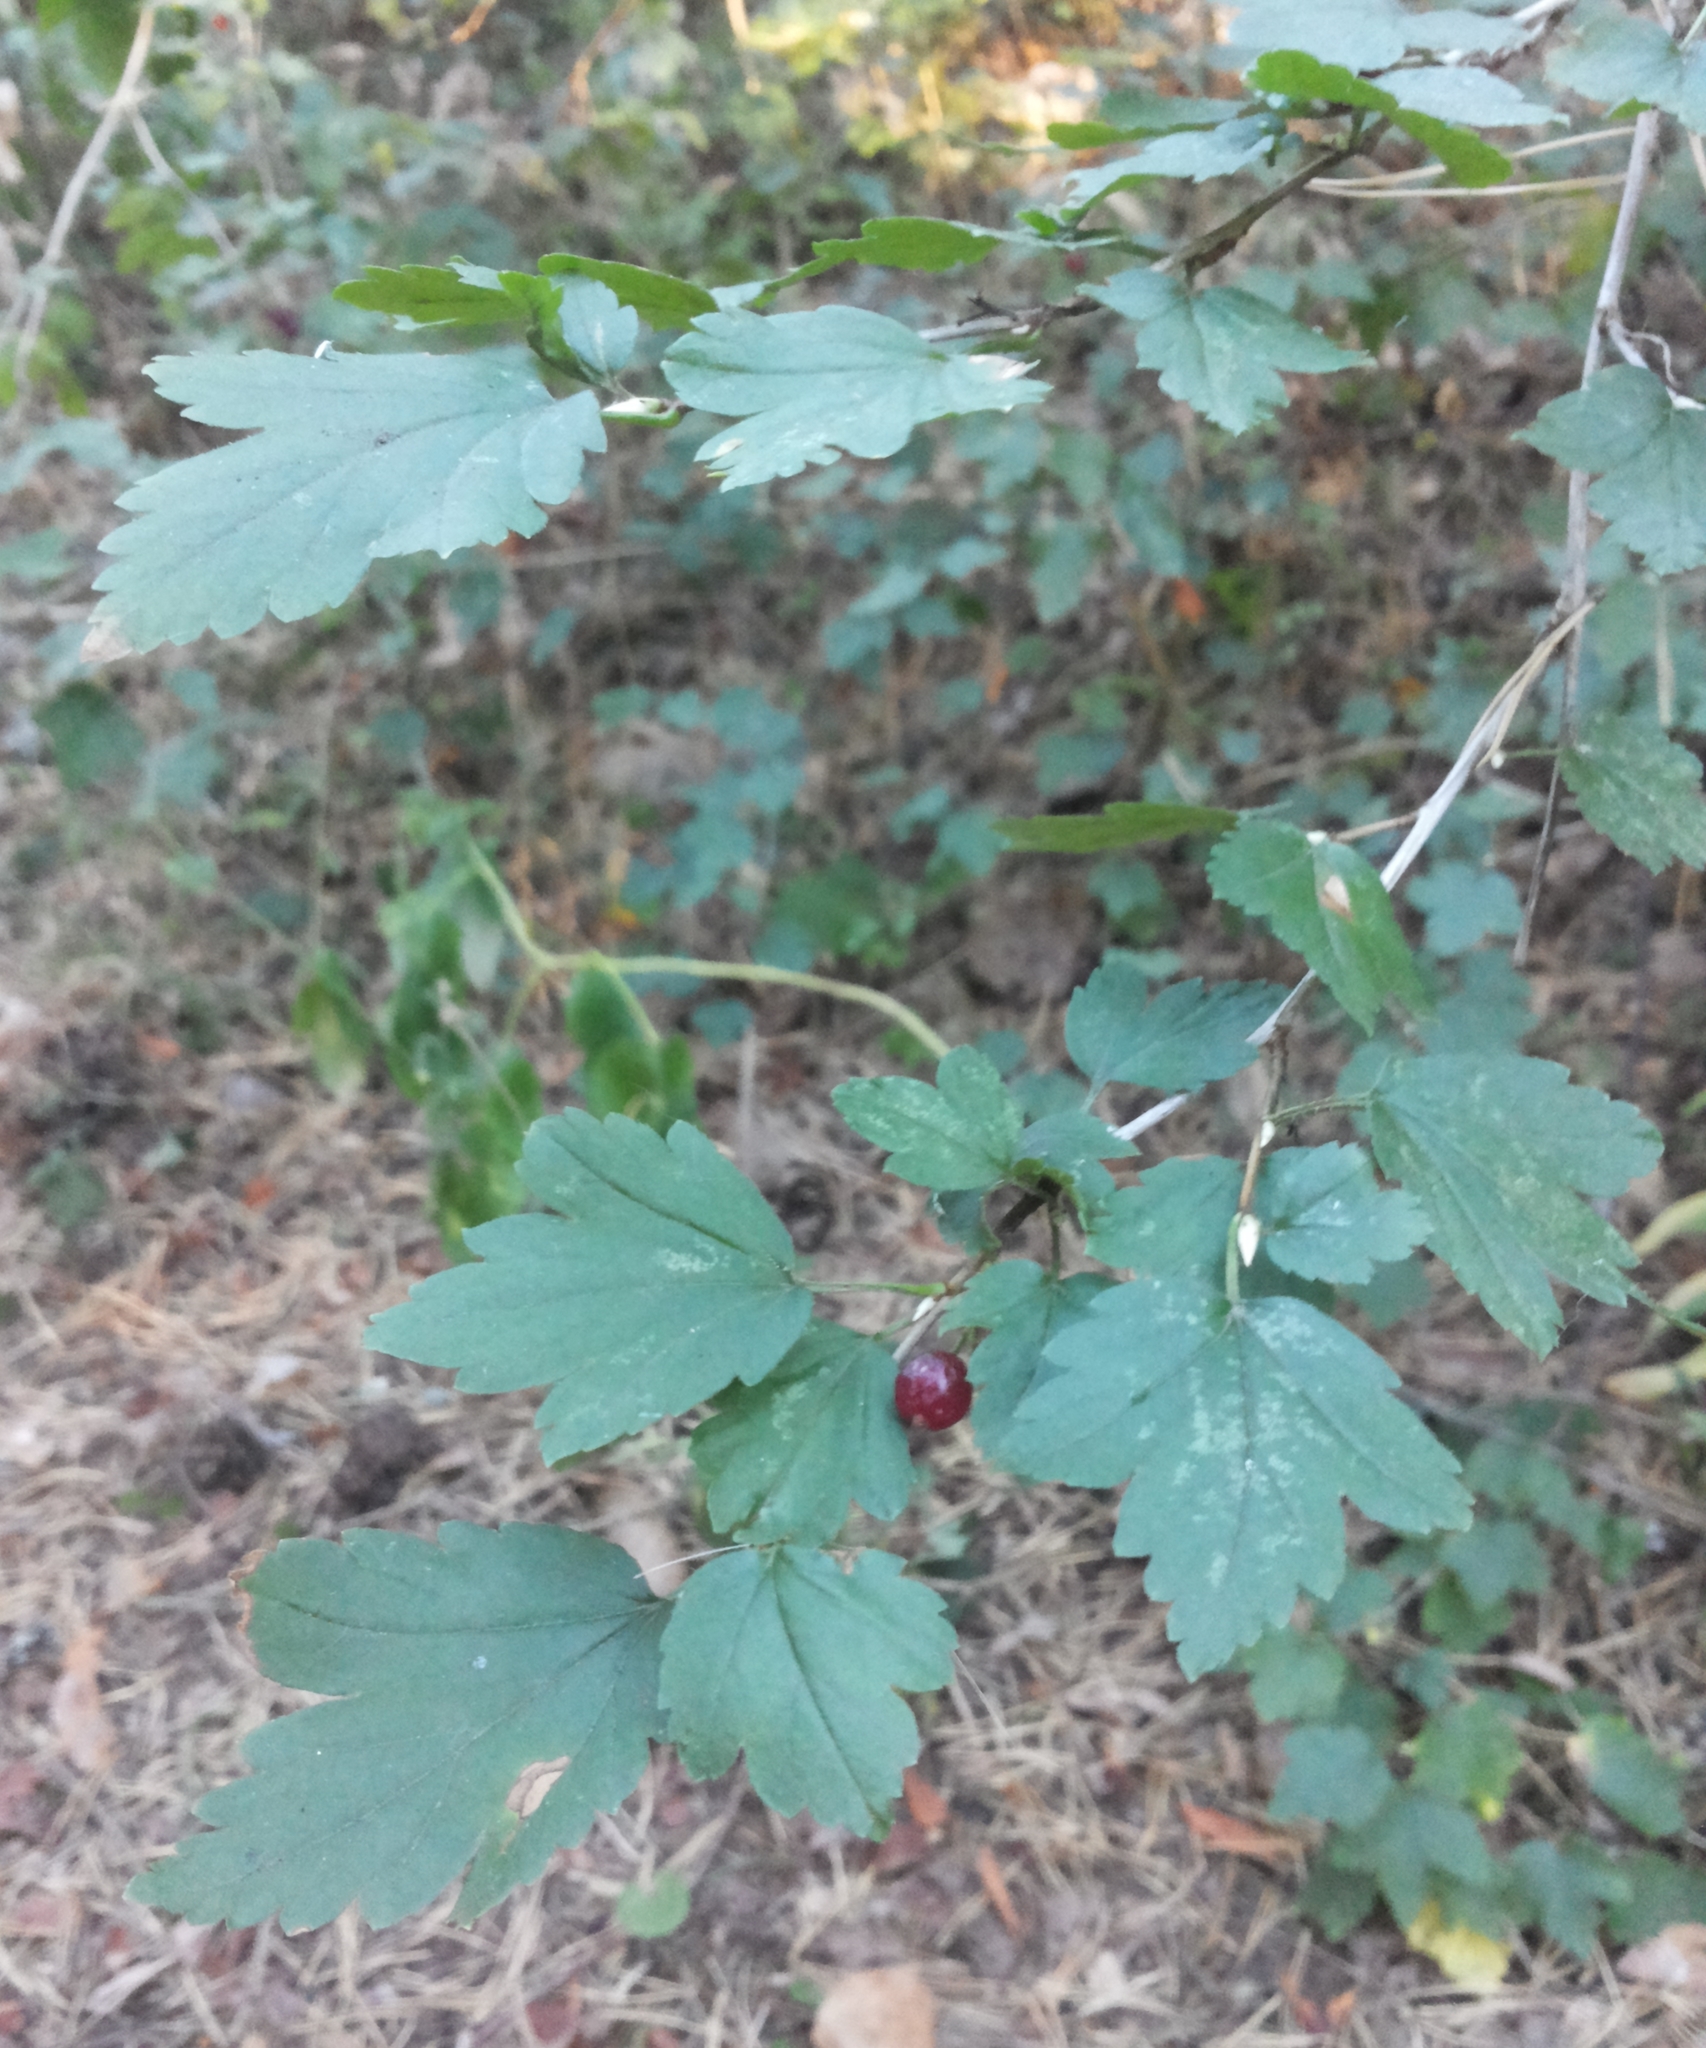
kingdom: Plantae
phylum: Tracheophyta
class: Magnoliopsida
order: Saxifragales
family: Grossulariaceae
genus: Ribes
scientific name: Ribes alpinum
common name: Alpine currant
